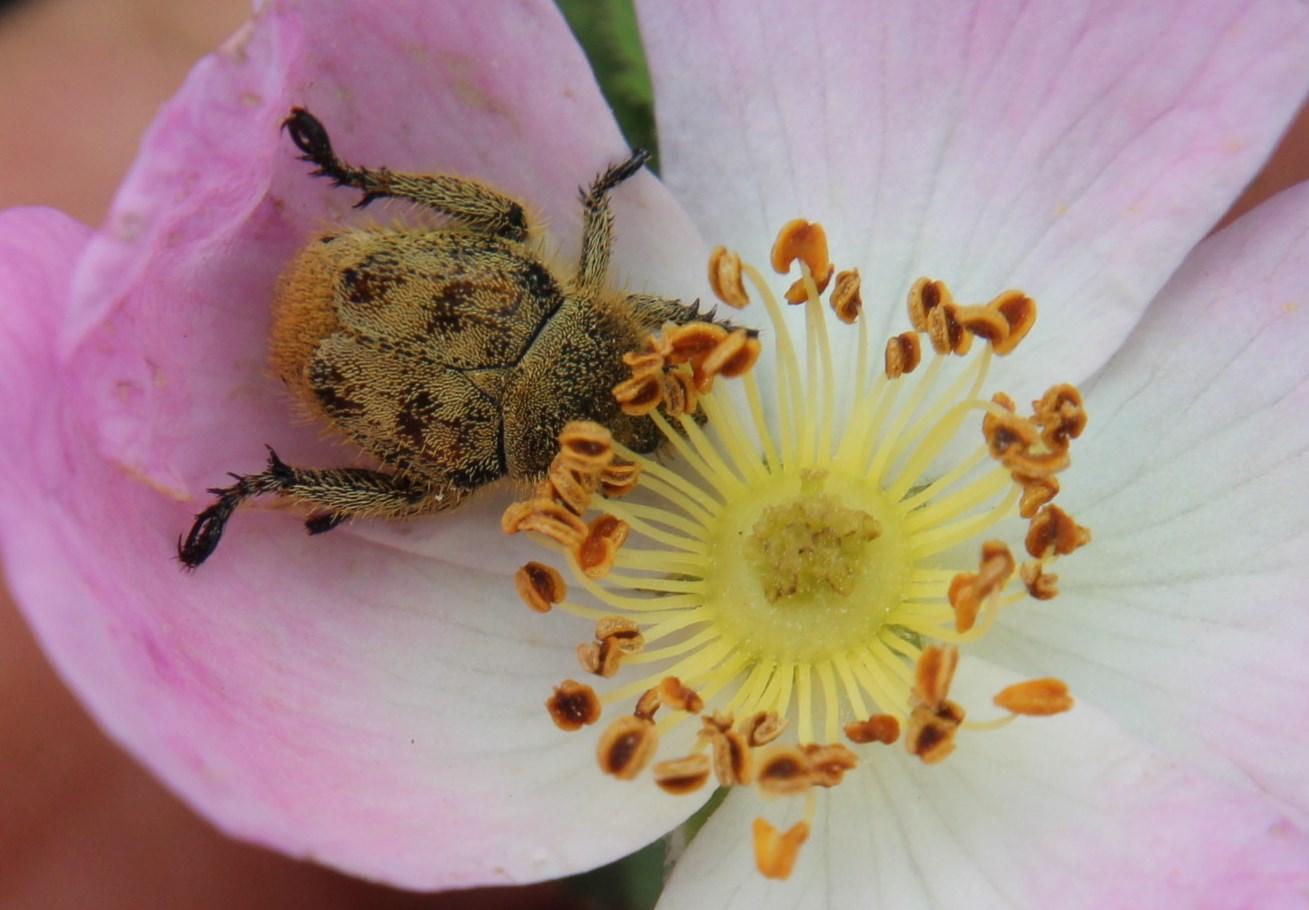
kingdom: Plantae
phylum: Tracheophyta
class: Magnoliopsida
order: Rosales
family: Rosaceae
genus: Rosa
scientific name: Rosa canina
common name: Dog rose
